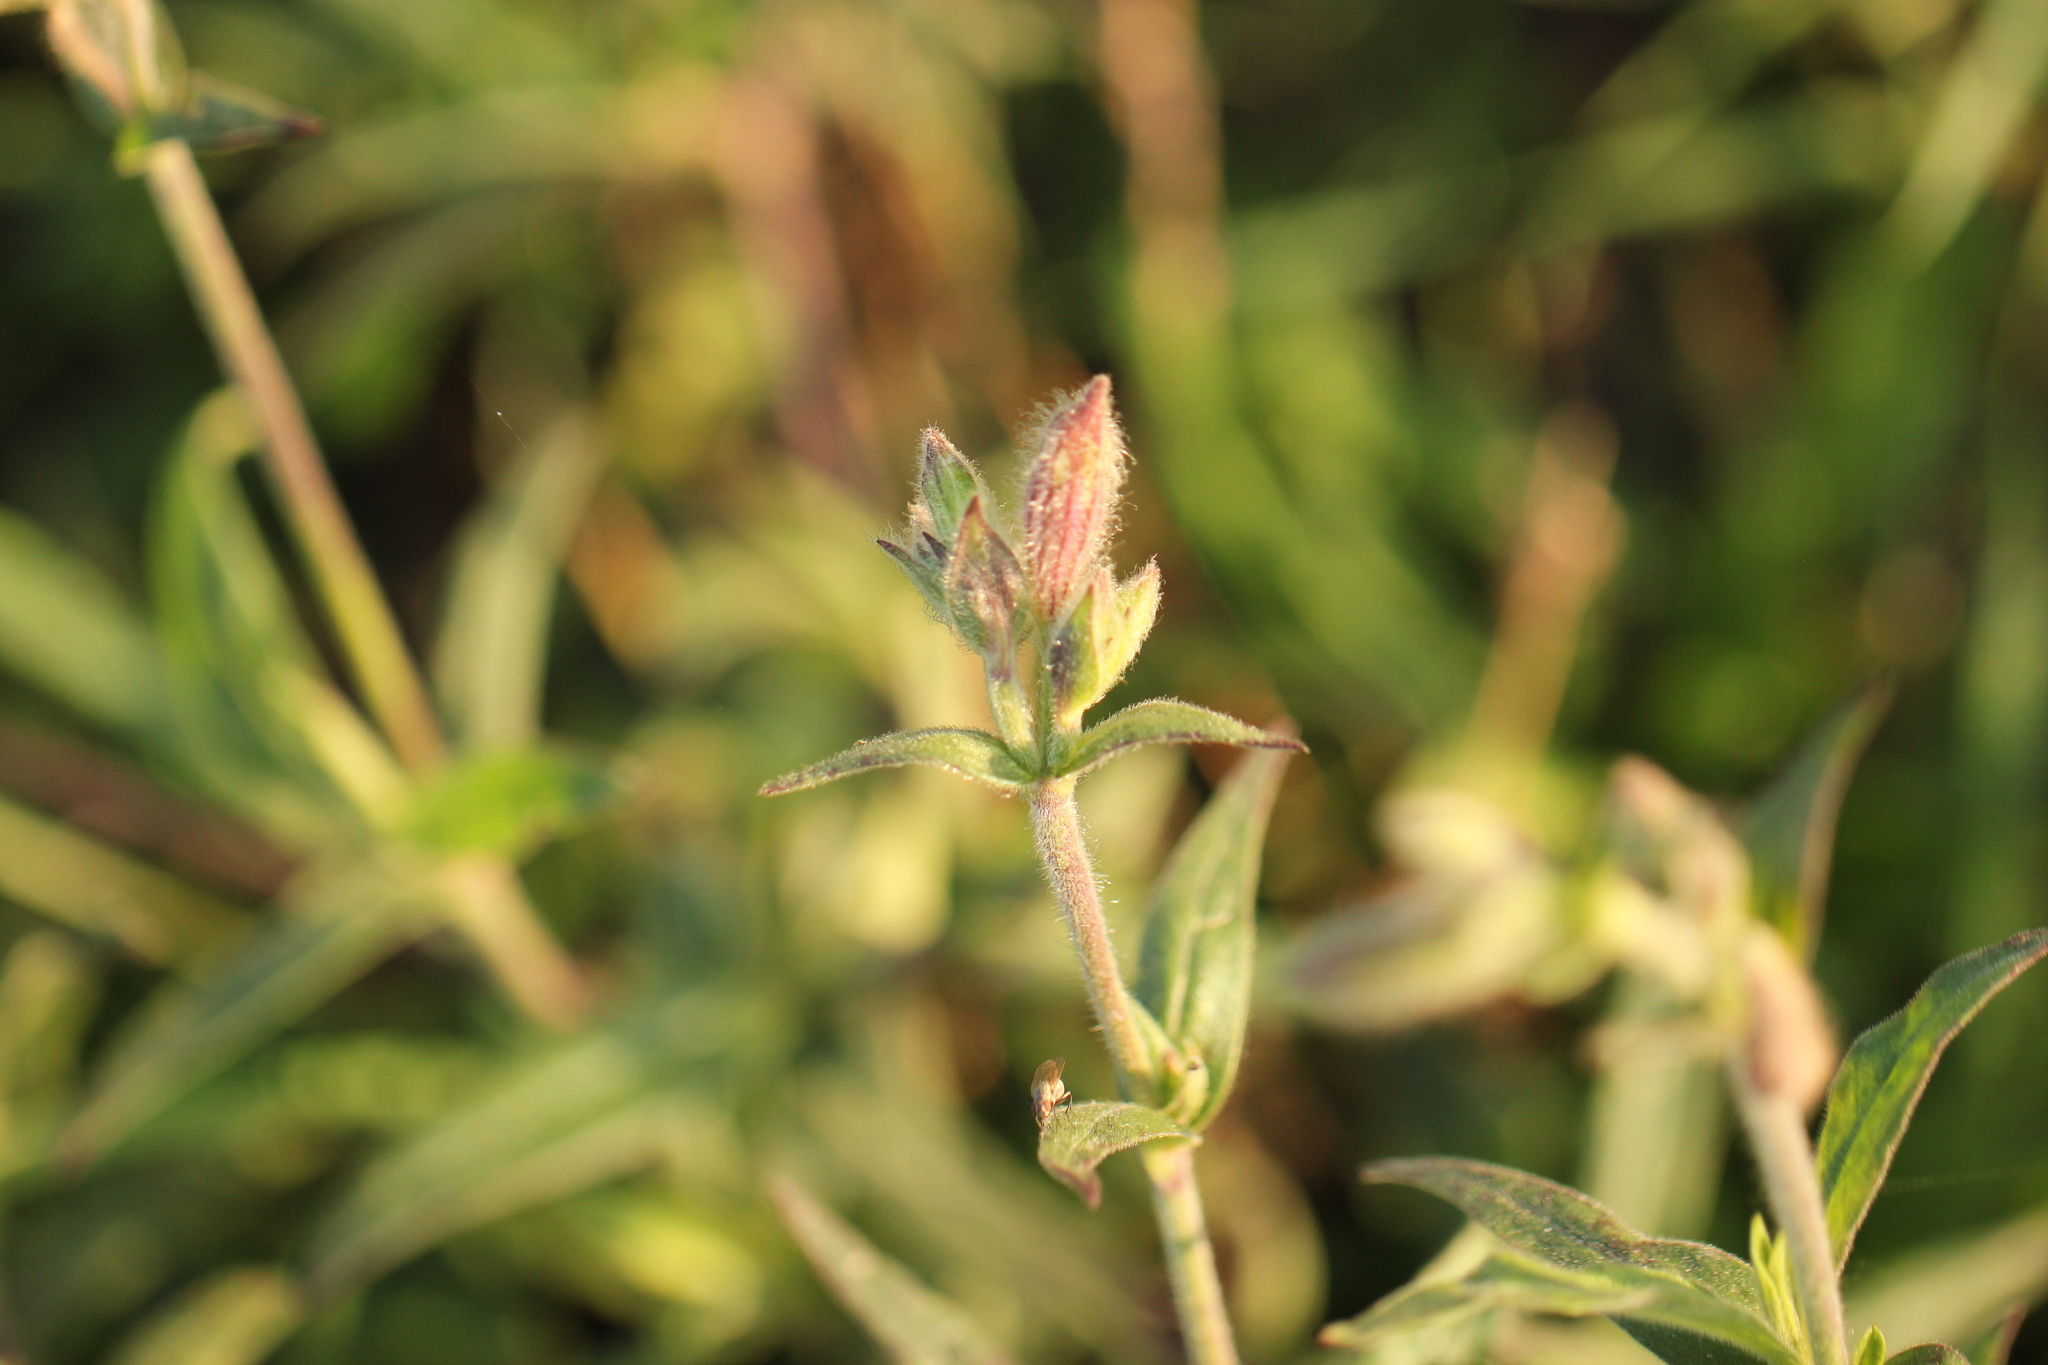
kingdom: Plantae
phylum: Tracheophyta
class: Magnoliopsida
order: Caryophyllales
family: Caryophyllaceae
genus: Silene
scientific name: Silene latifolia
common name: White campion
